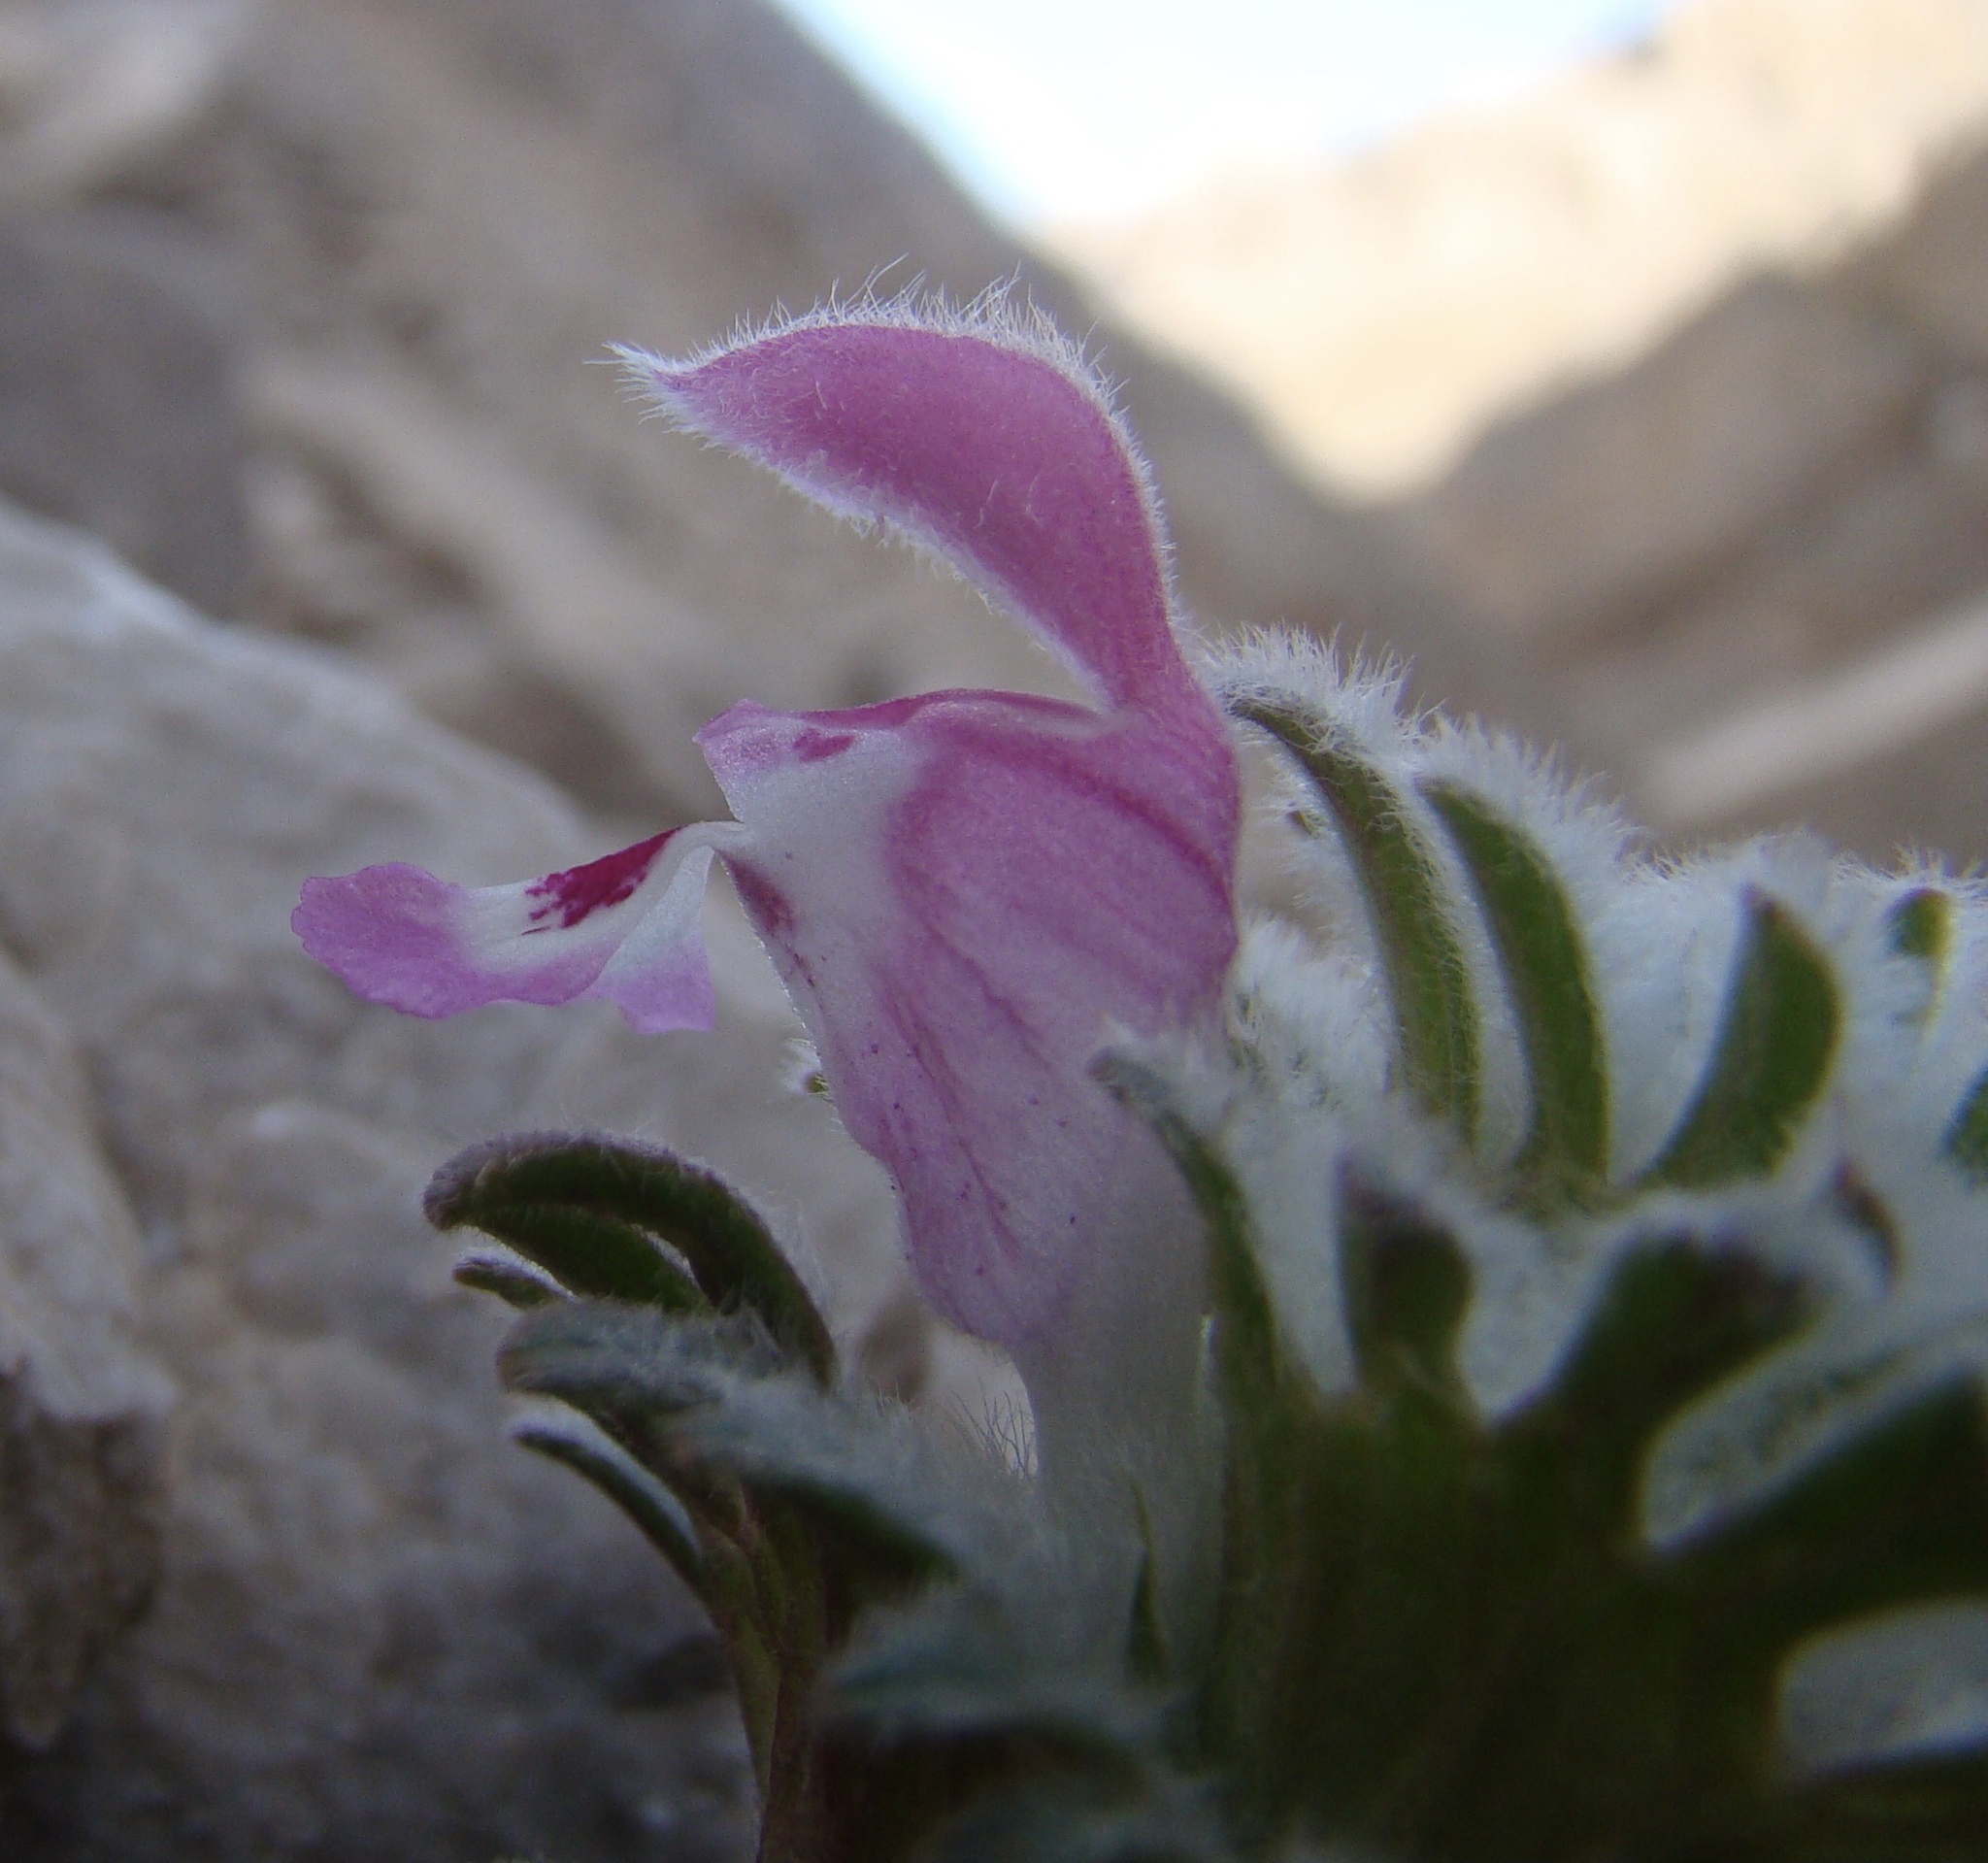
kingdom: Plantae
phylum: Tracheophyta
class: Magnoliopsida
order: Lamiales
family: Lamiaceae
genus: Lamium
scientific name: Lamium eriocephalum
